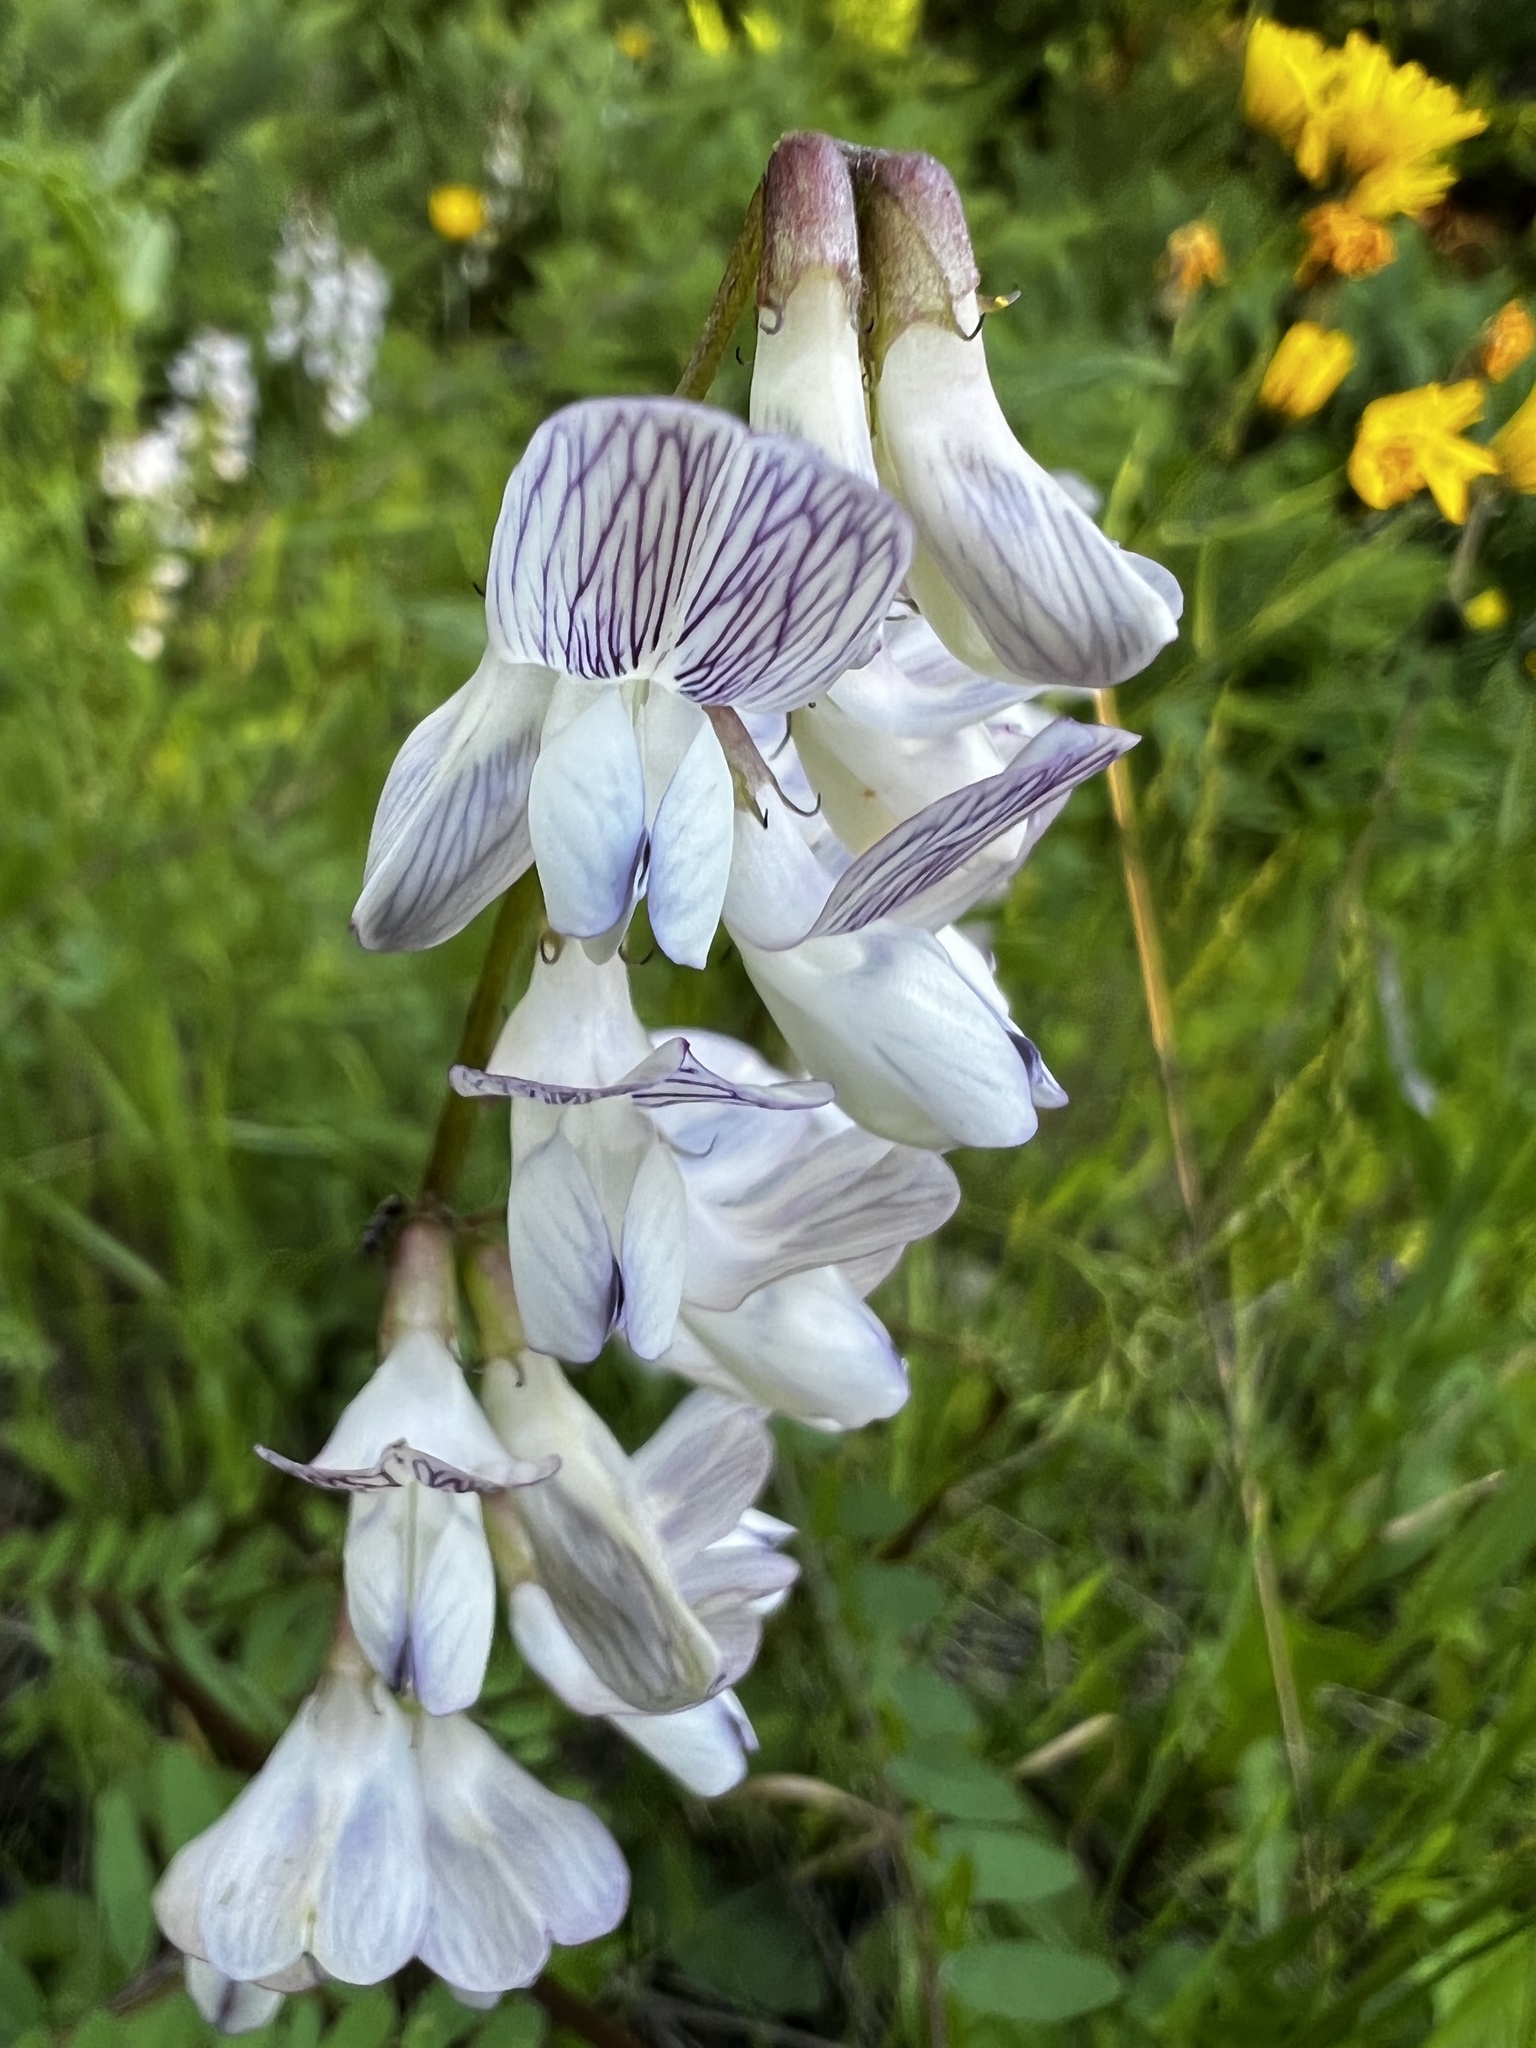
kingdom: Plantae
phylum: Tracheophyta
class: Magnoliopsida
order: Fabales
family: Fabaceae
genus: Vicia
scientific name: Vicia sylvatica
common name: Wood vetch
